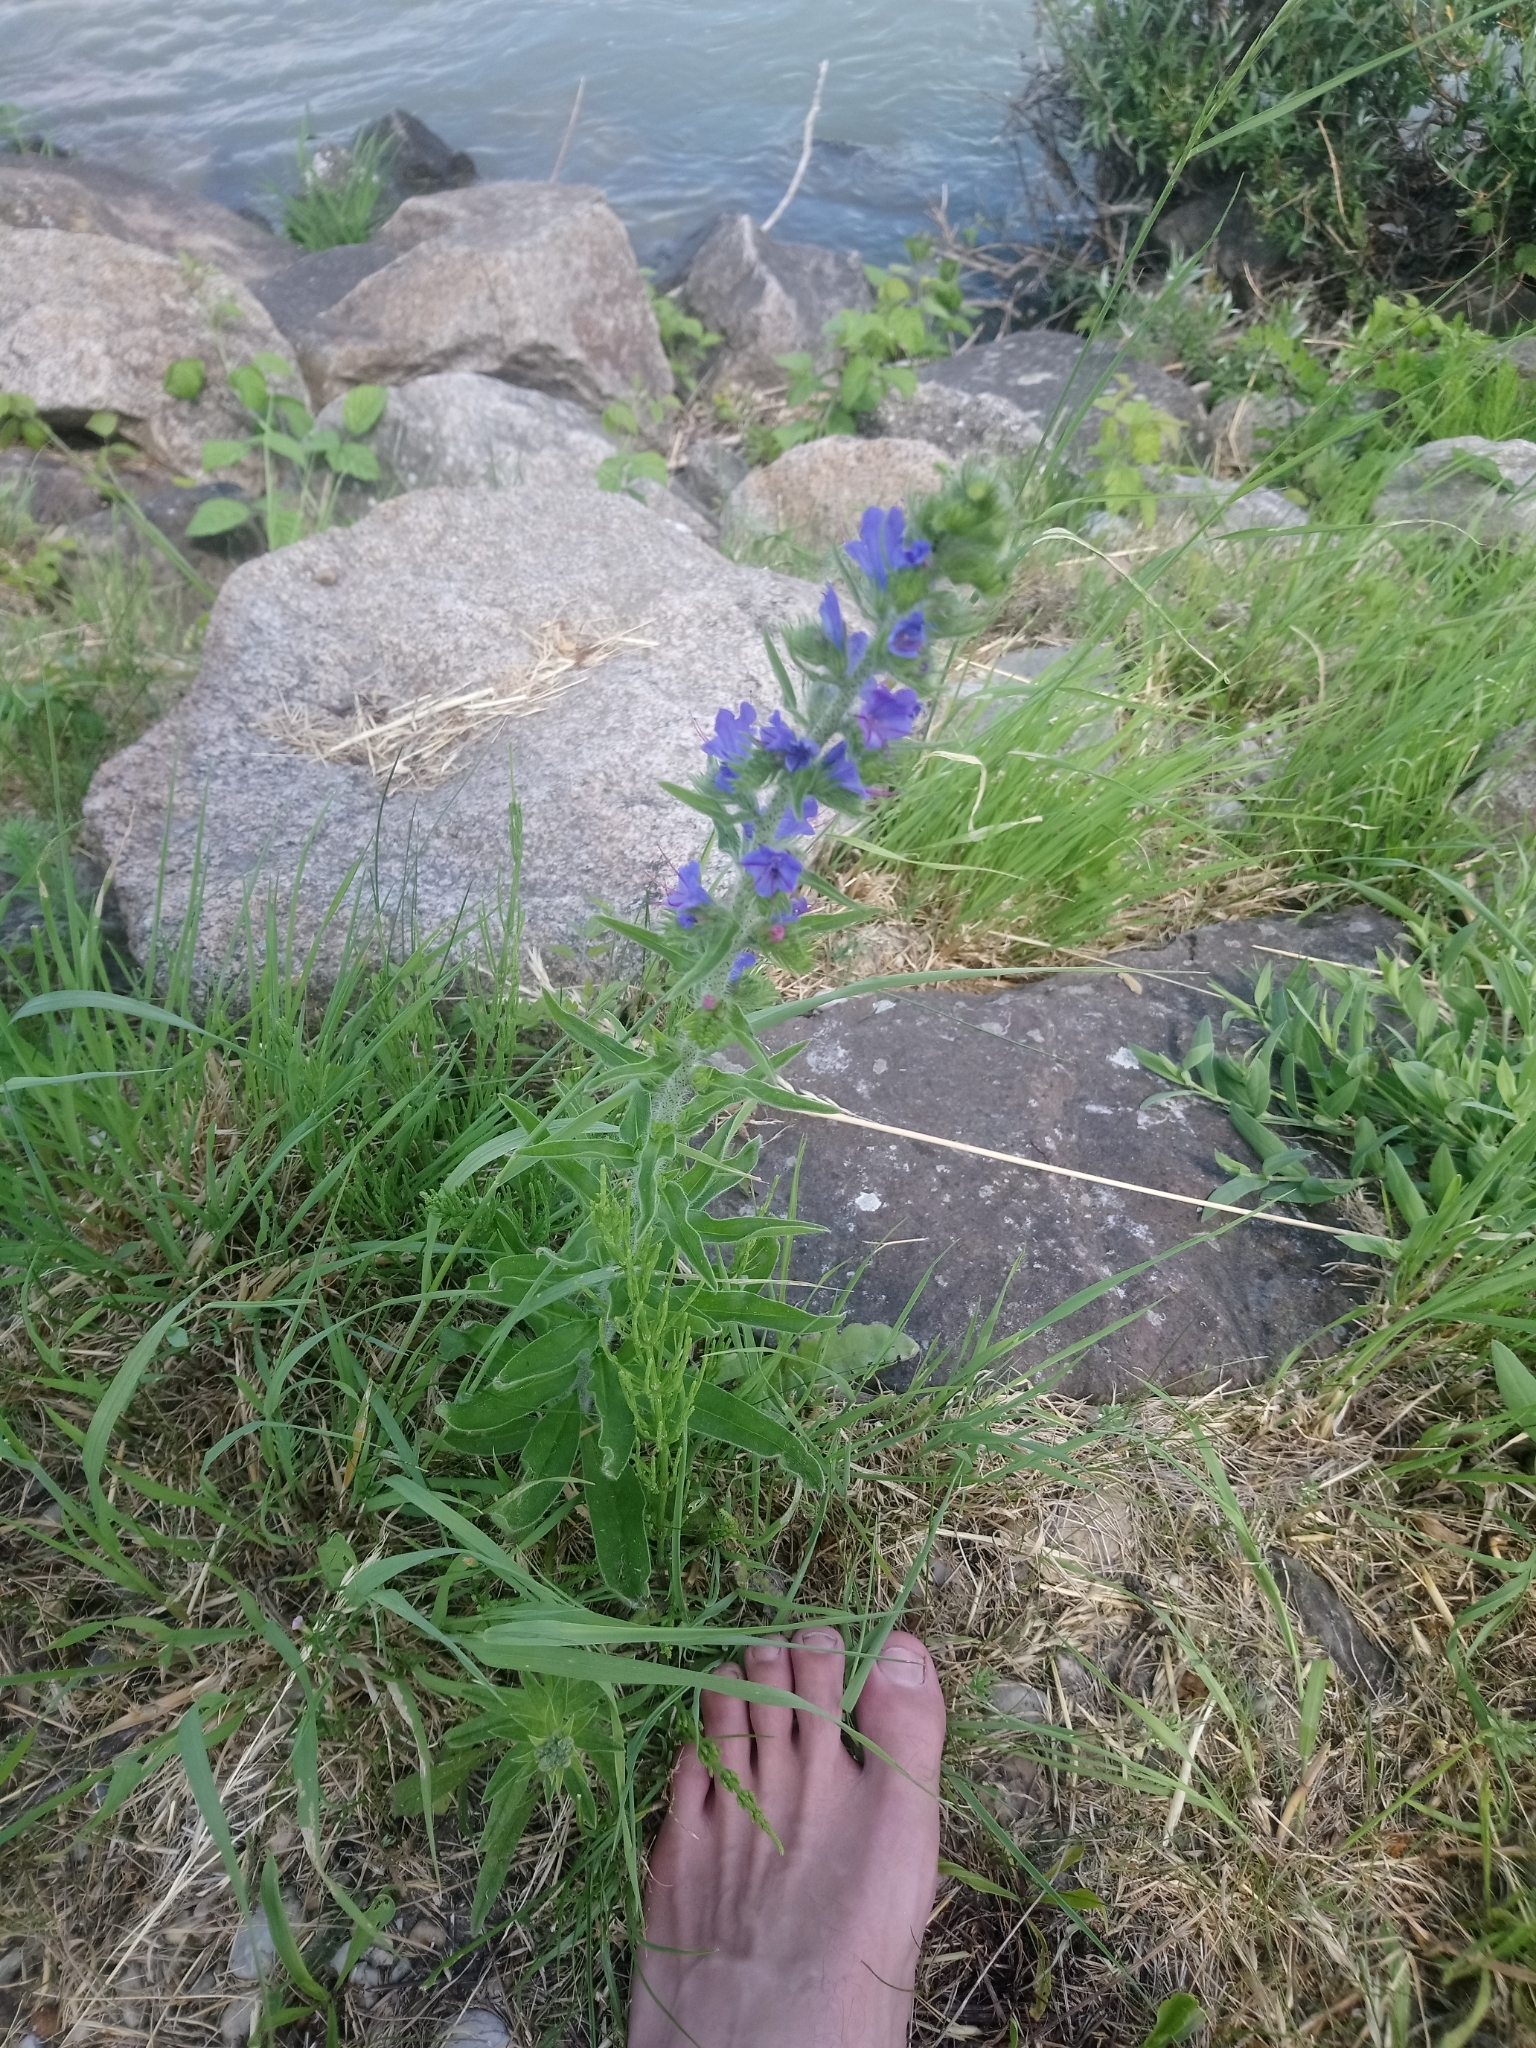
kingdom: Plantae
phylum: Tracheophyta
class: Magnoliopsida
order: Boraginales
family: Boraginaceae
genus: Echium
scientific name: Echium vulgare
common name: Common viper's bugloss
